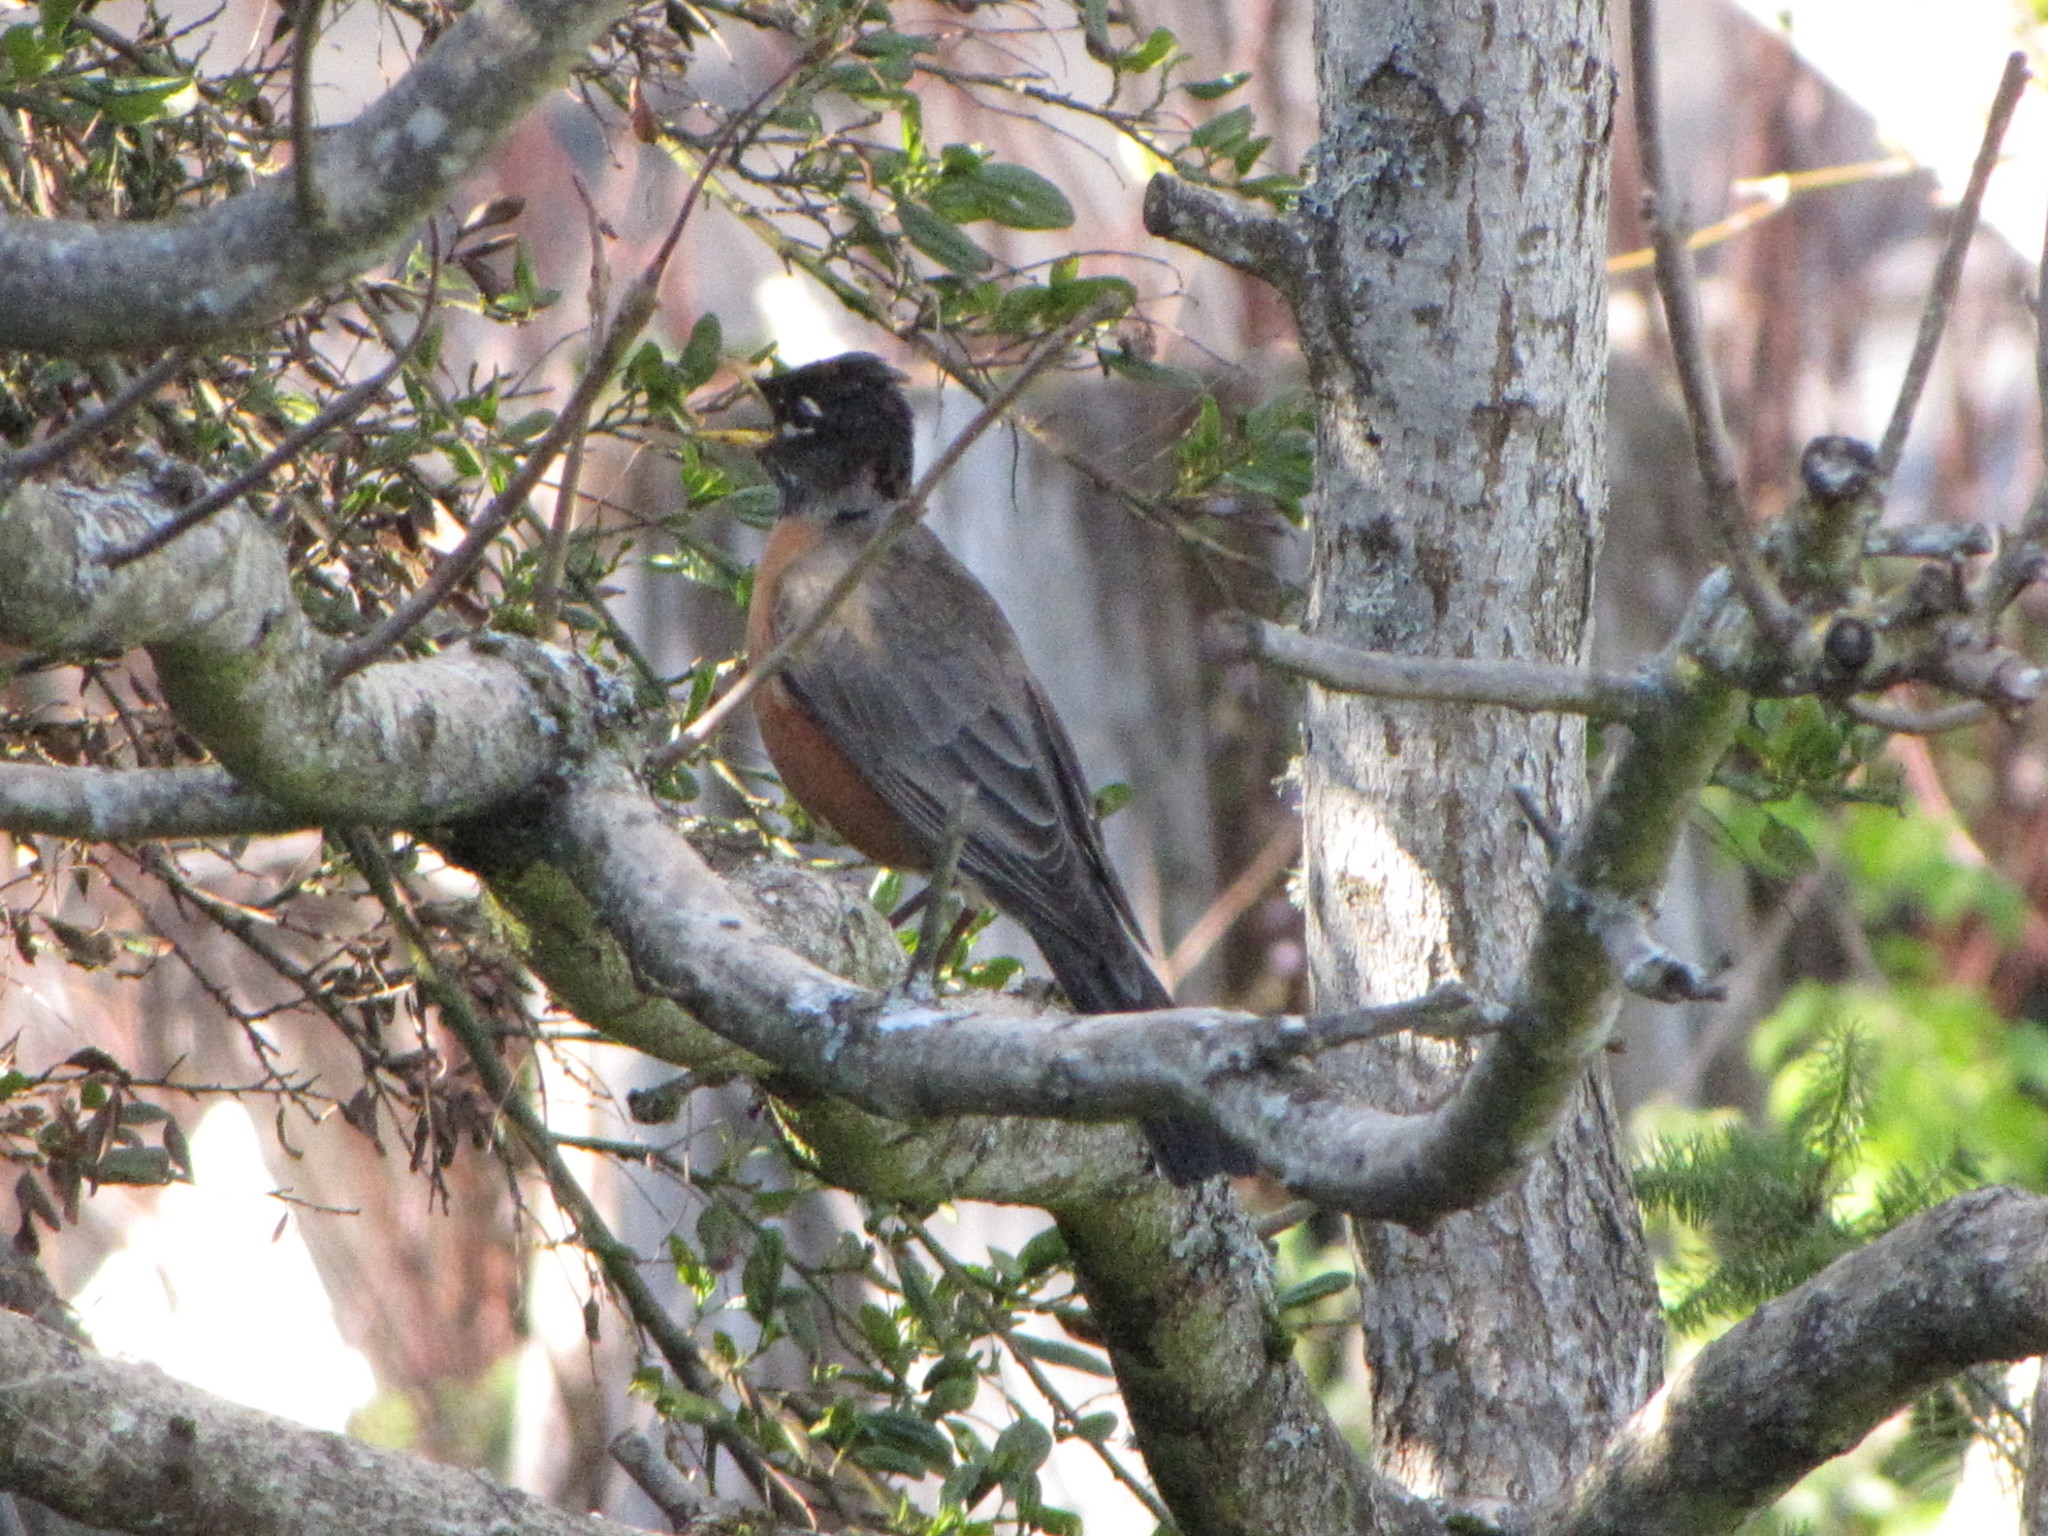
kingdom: Animalia
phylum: Chordata
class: Aves
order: Passeriformes
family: Turdidae
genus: Turdus
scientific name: Turdus migratorius
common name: American robin
